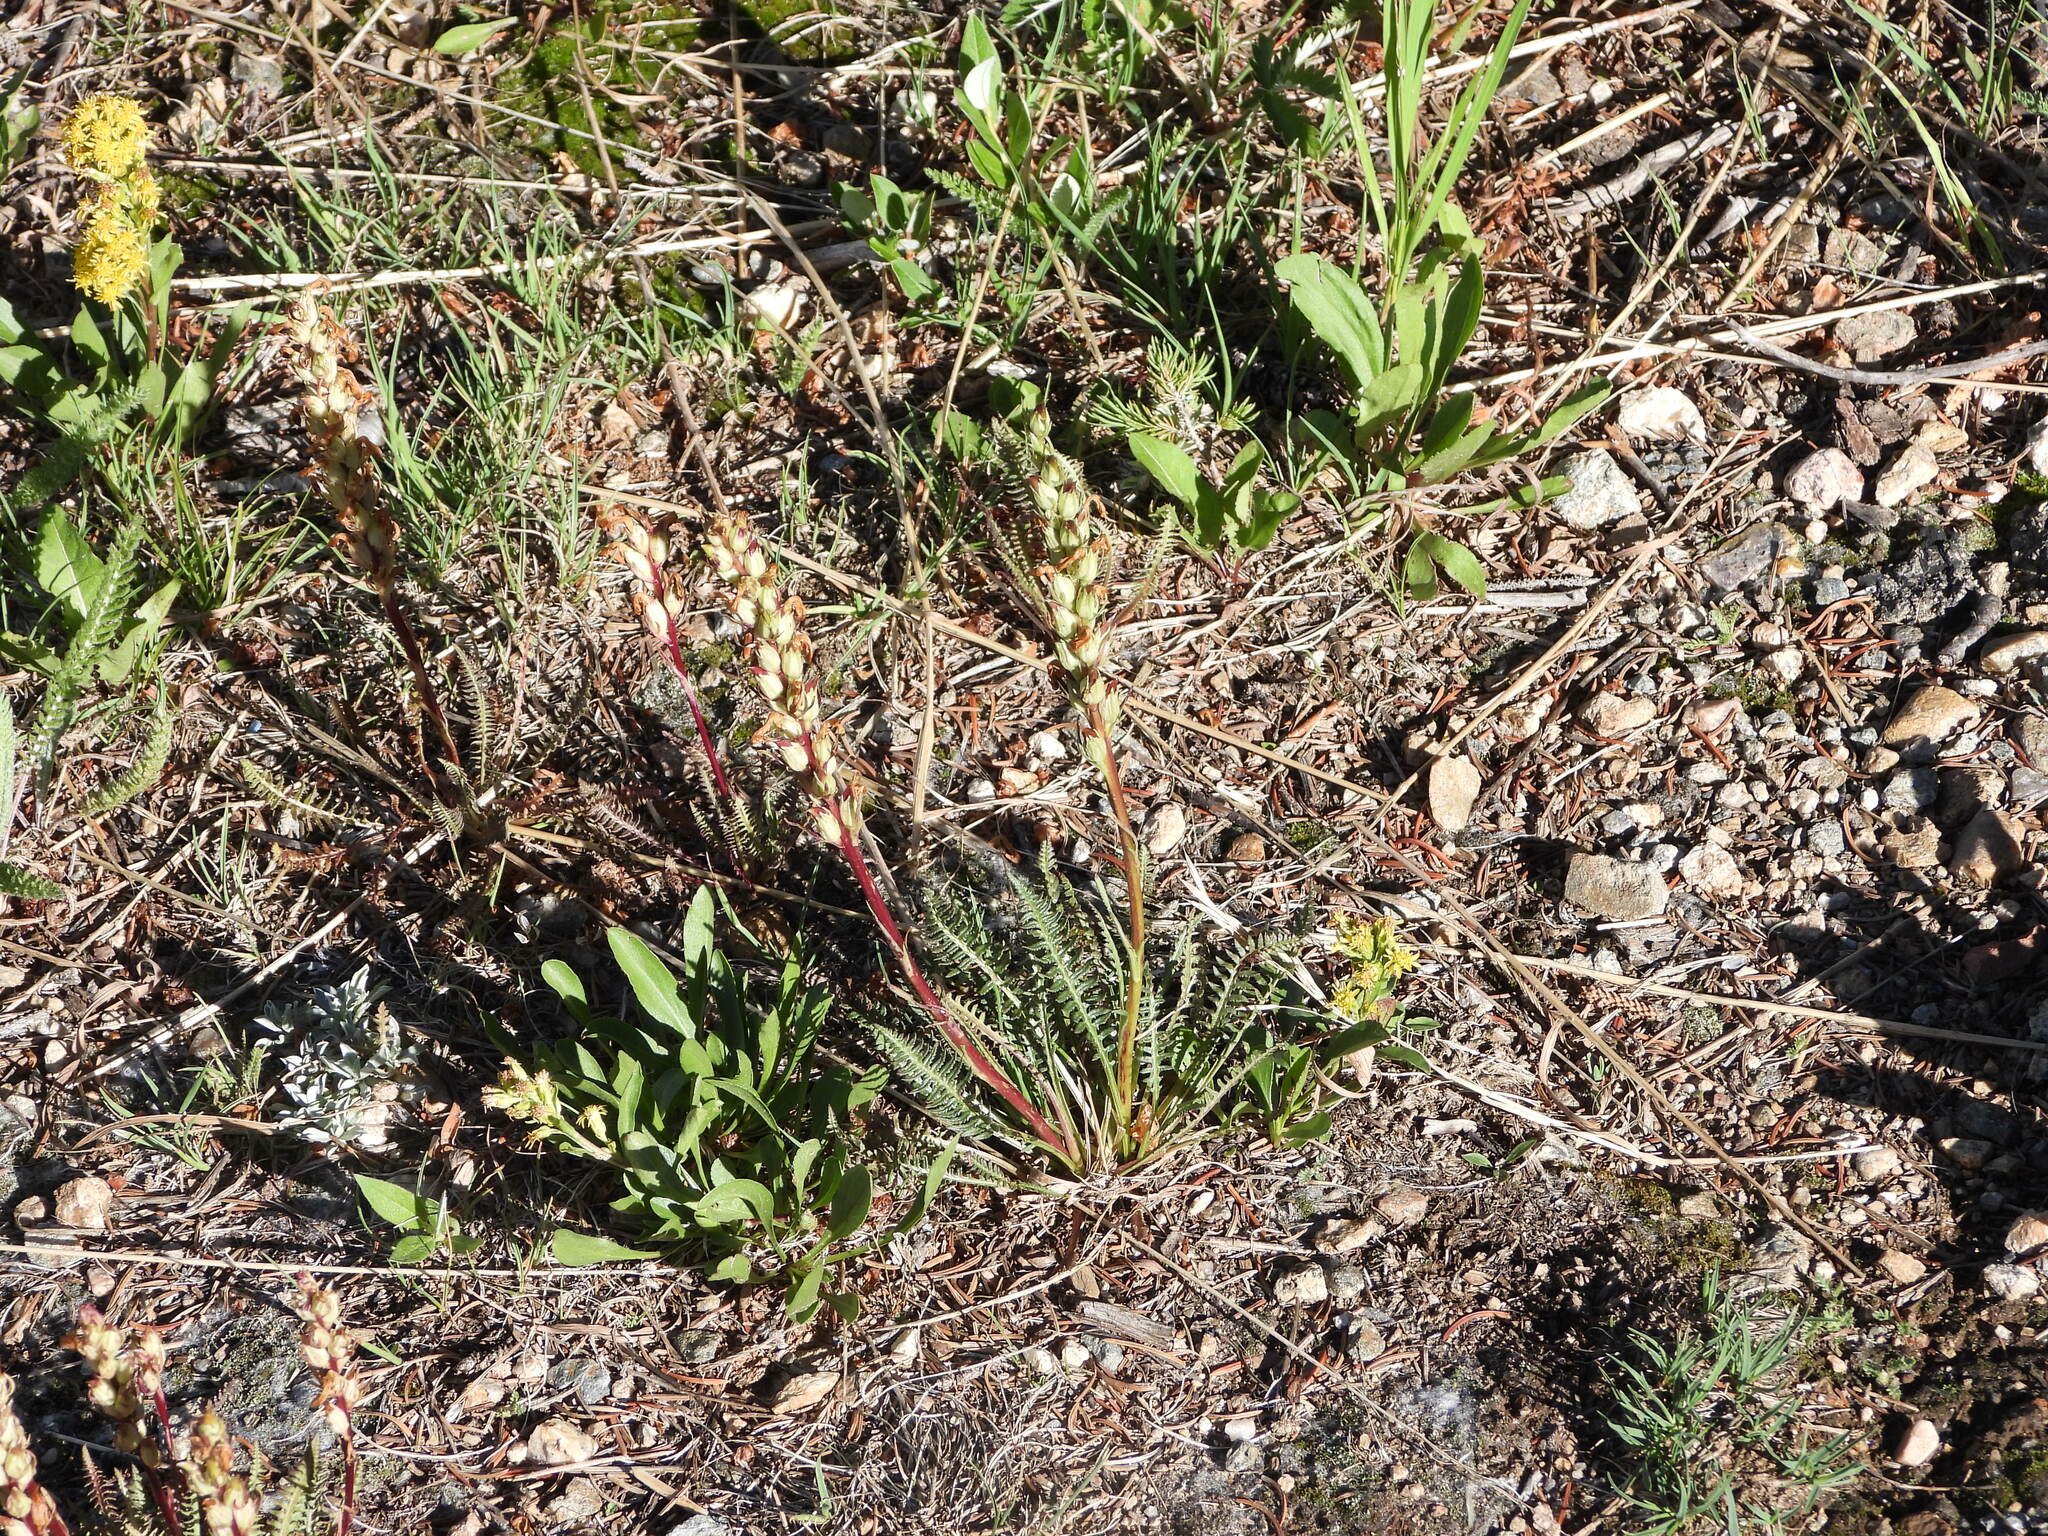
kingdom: Plantae
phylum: Tracheophyta
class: Magnoliopsida
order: Lamiales
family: Orobanchaceae
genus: Pedicularis
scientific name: Pedicularis parryi
